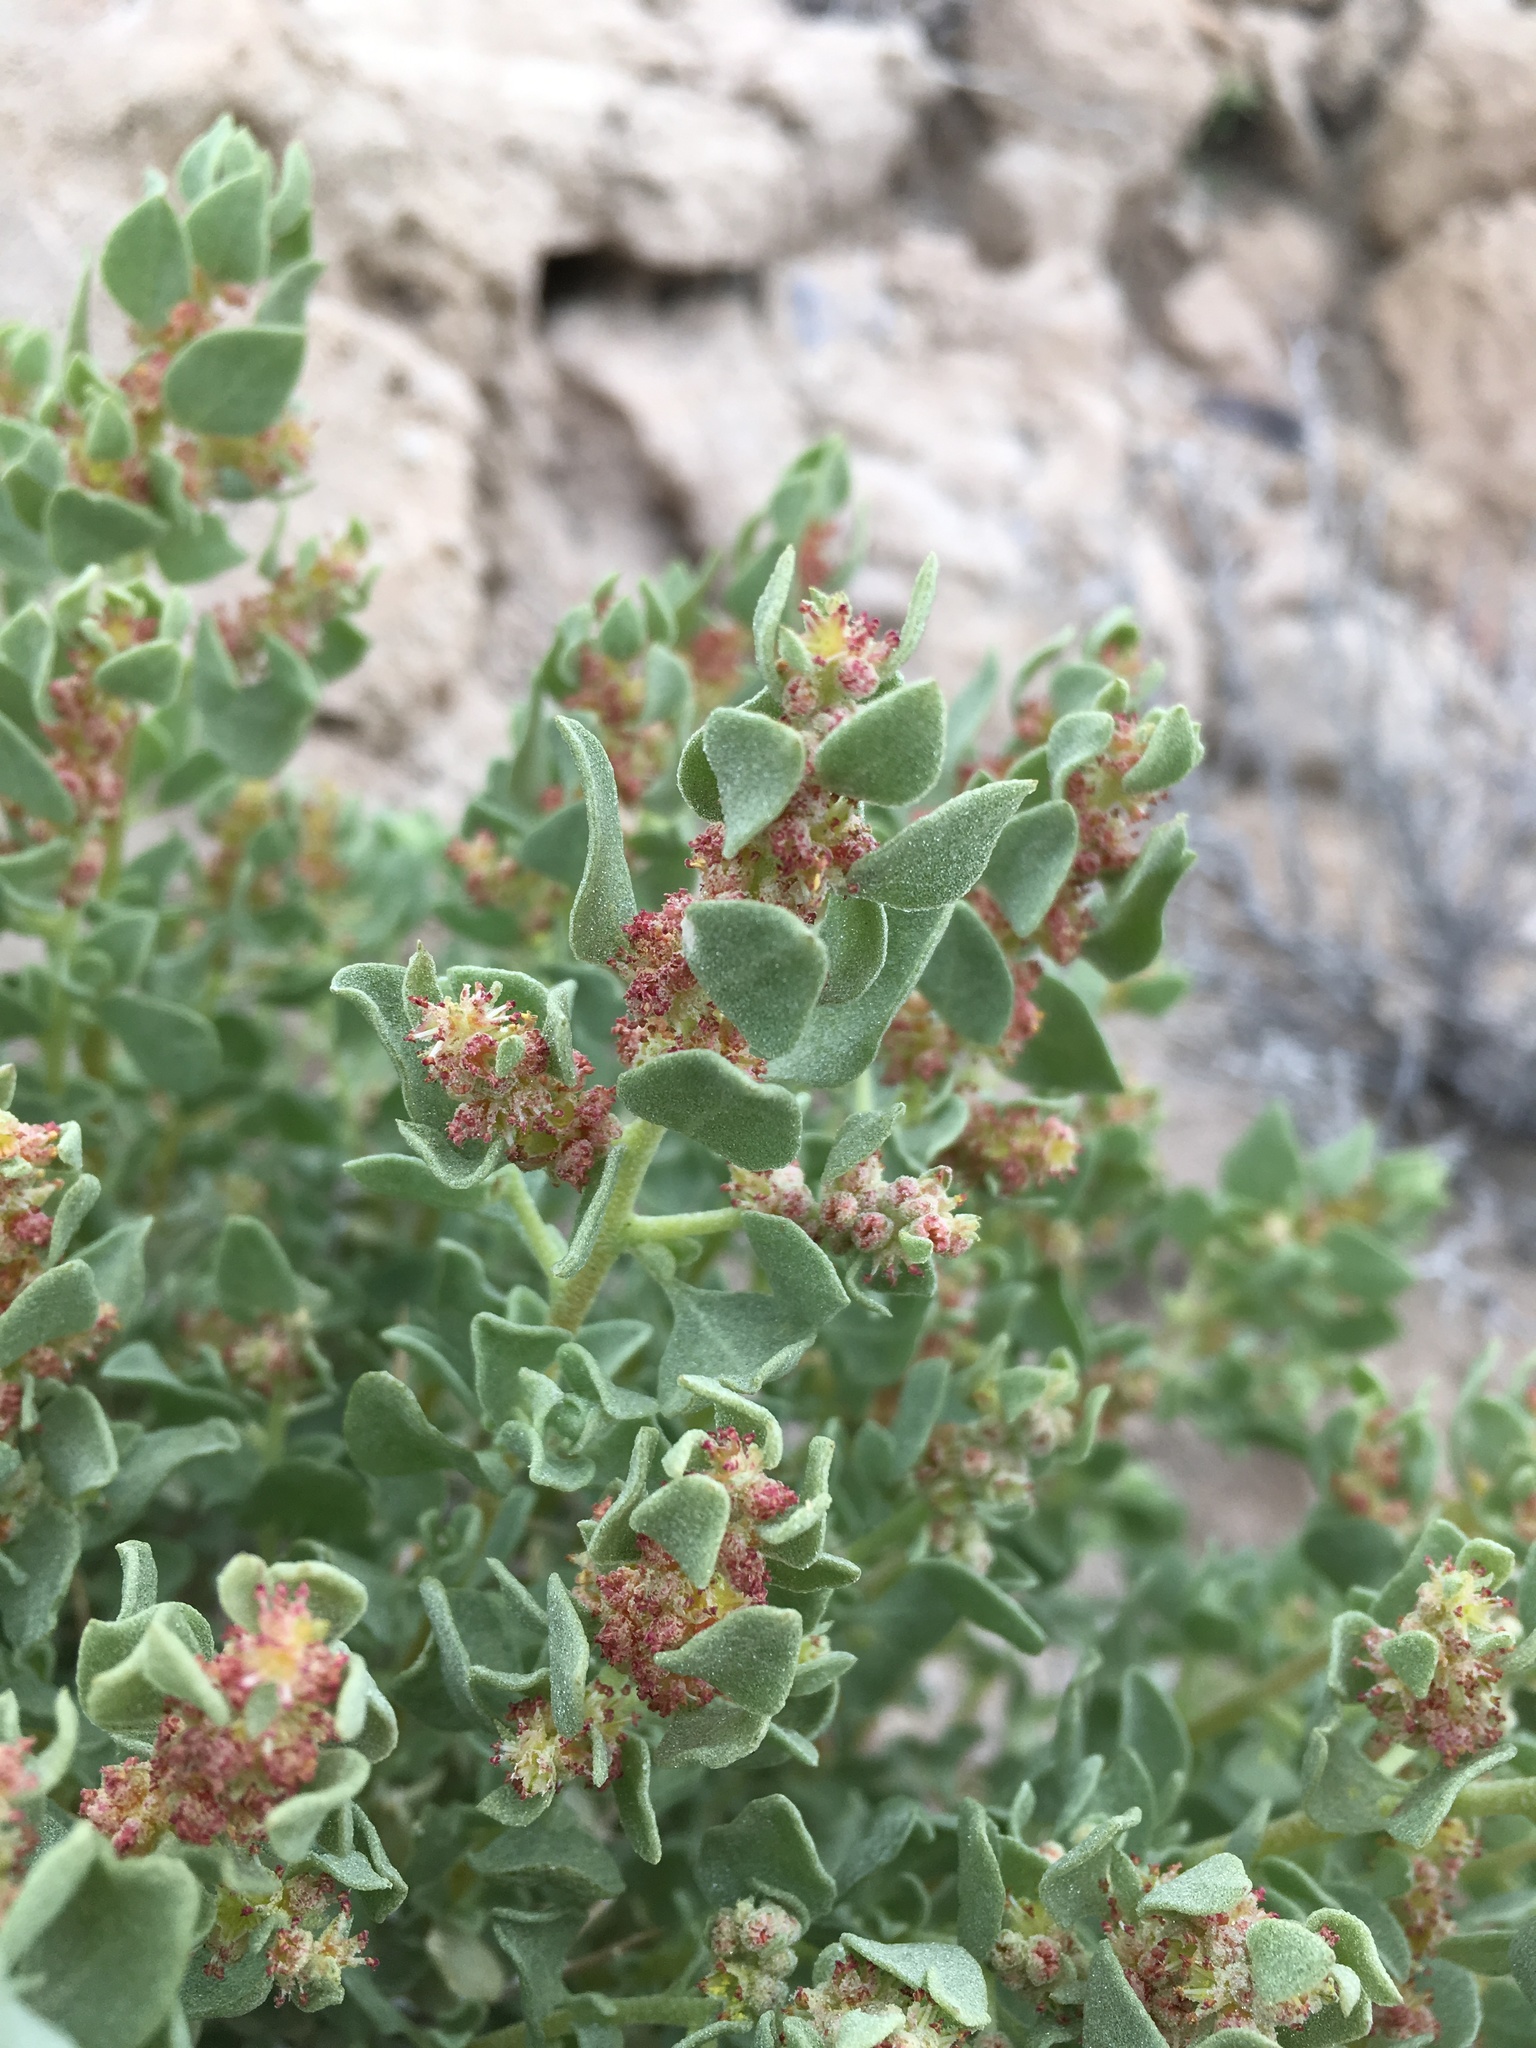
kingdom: Plantae
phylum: Tracheophyta
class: Magnoliopsida
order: Caryophyllales
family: Amaranthaceae
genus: Atriplex
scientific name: Atriplex confertifolia
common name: Shadscale
